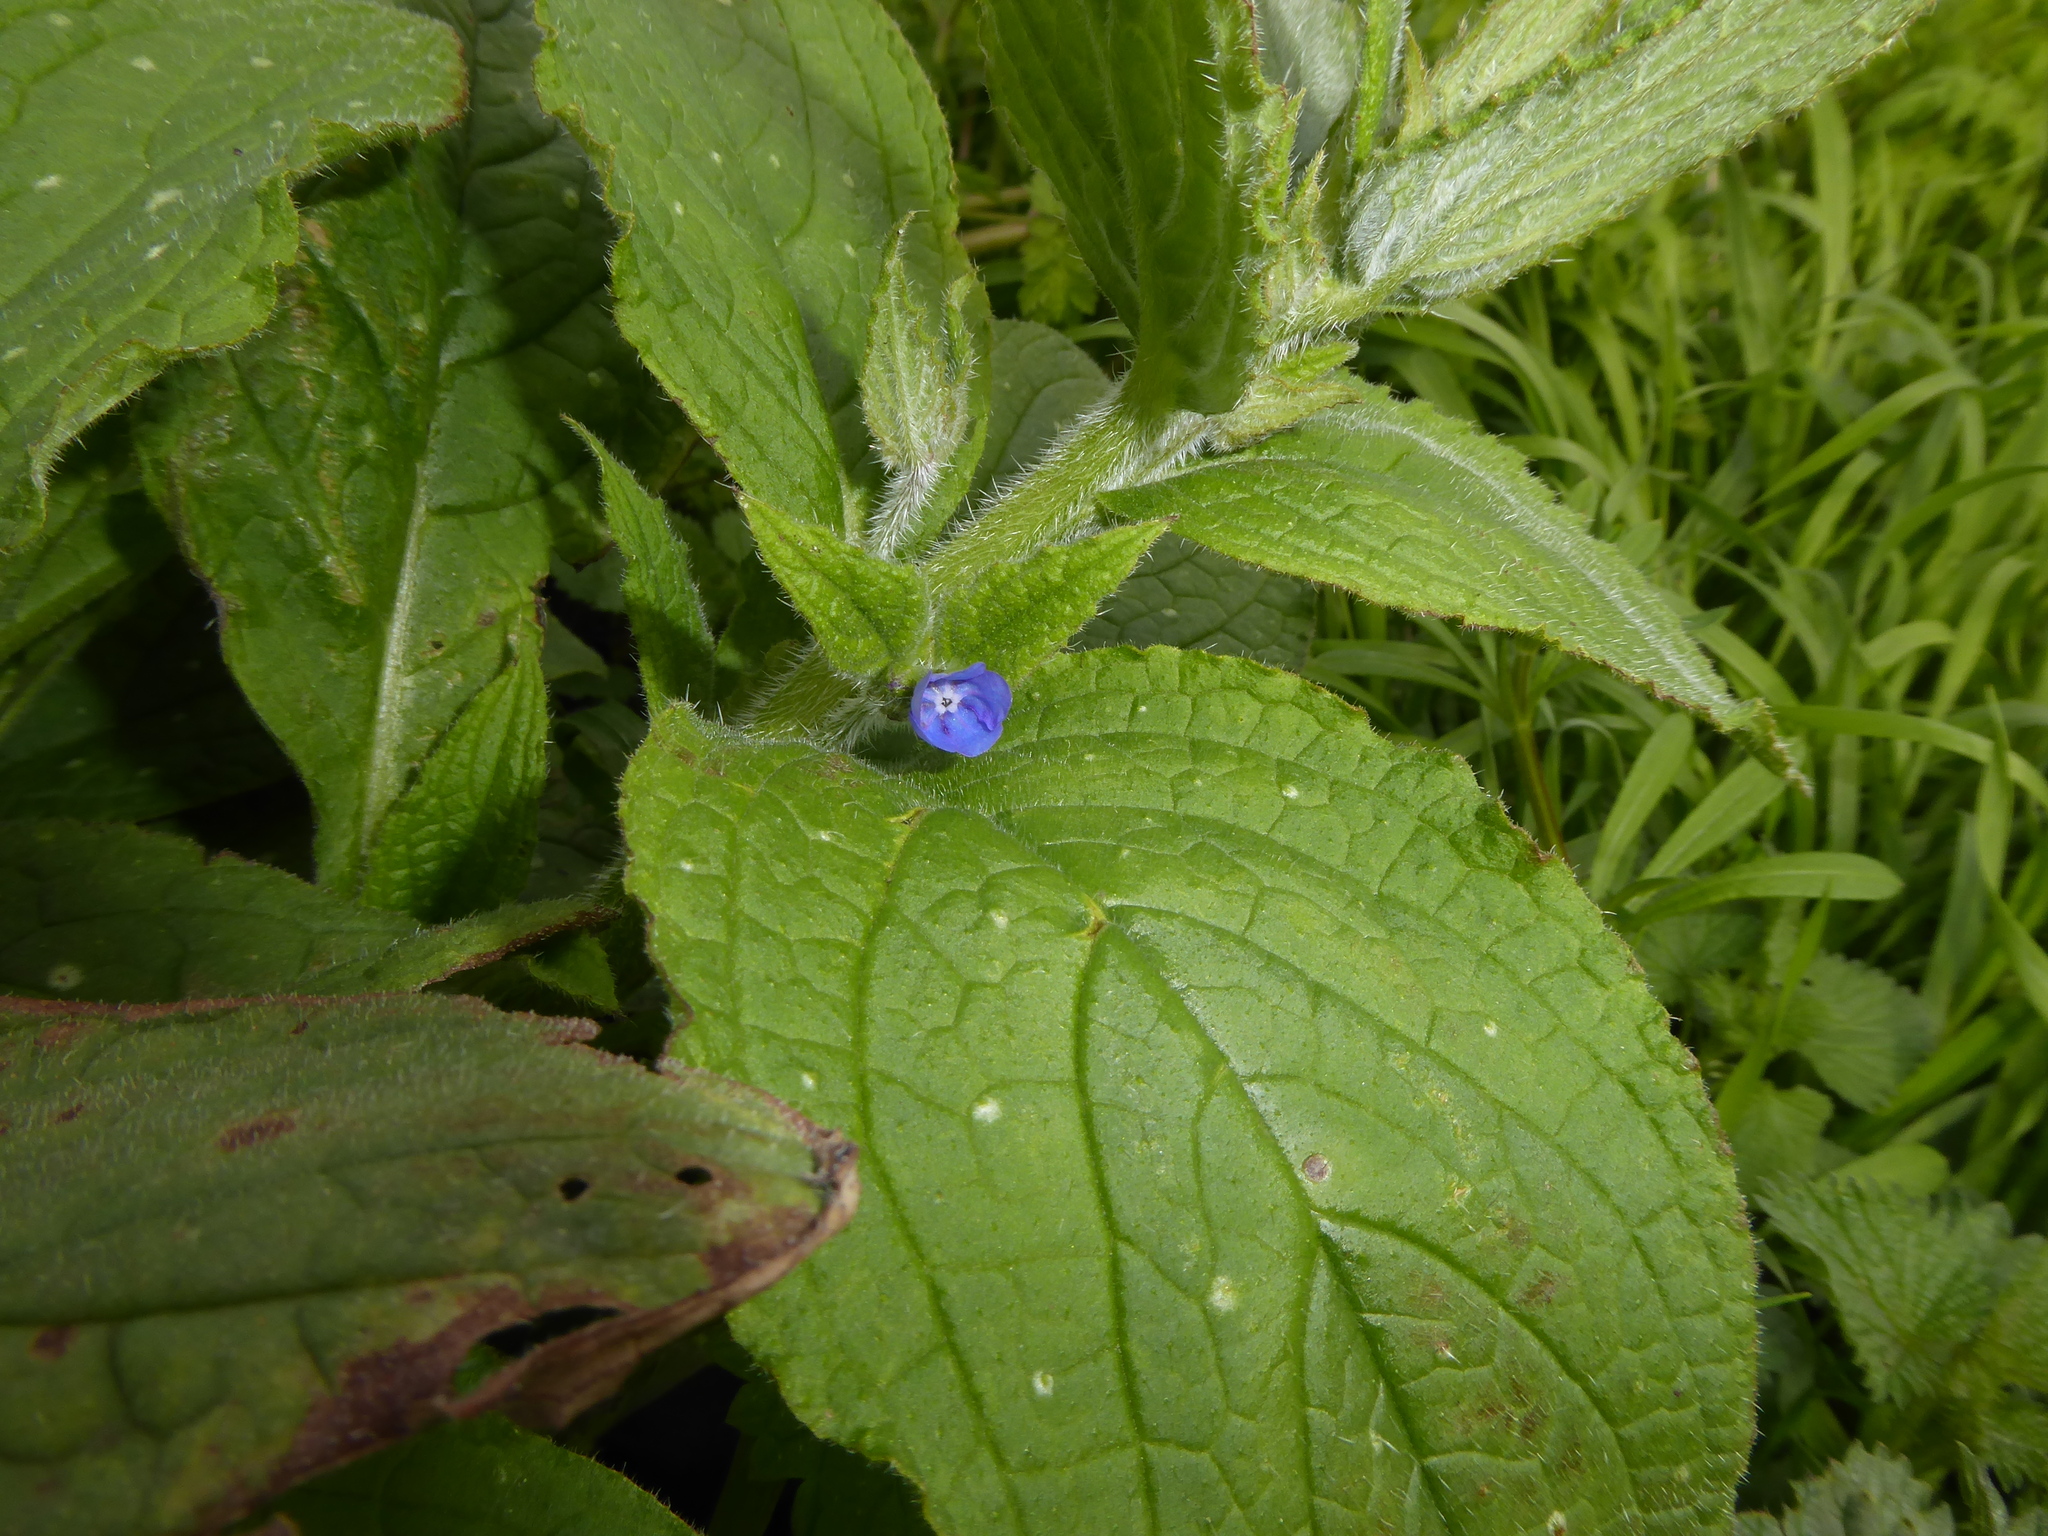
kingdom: Plantae
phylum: Tracheophyta
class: Magnoliopsida
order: Boraginales
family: Boraginaceae
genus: Pentaglottis
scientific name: Pentaglottis sempervirens
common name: Green alkanet
